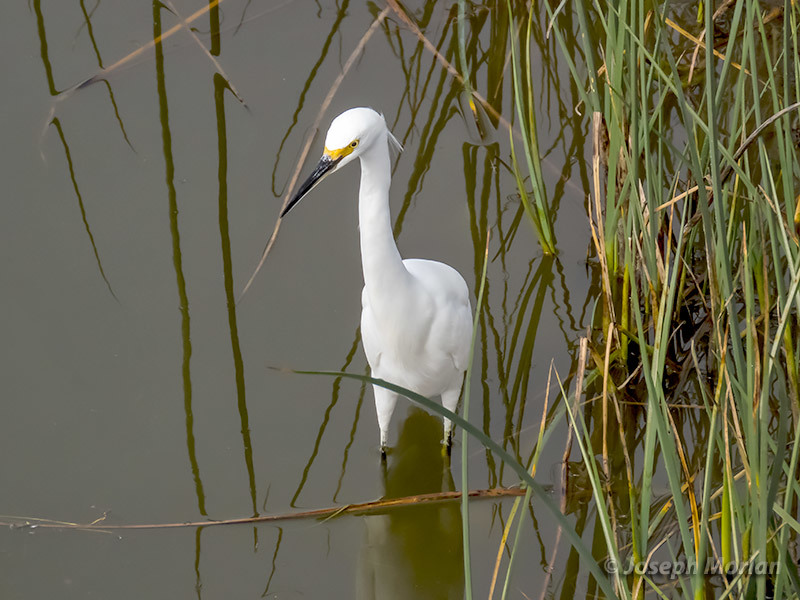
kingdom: Animalia
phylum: Chordata
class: Aves
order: Pelecaniformes
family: Ardeidae
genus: Egretta
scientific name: Egretta thula
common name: Snowy egret
